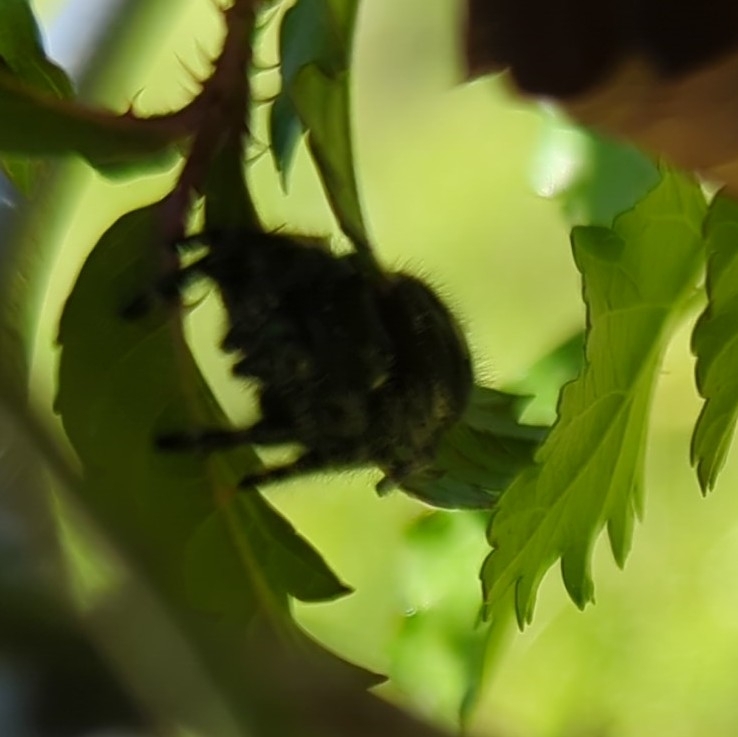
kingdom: Animalia
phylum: Arthropoda
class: Arachnida
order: Araneae
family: Salticidae
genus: Phidippus
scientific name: Phidippus audax
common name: Bold jumper
